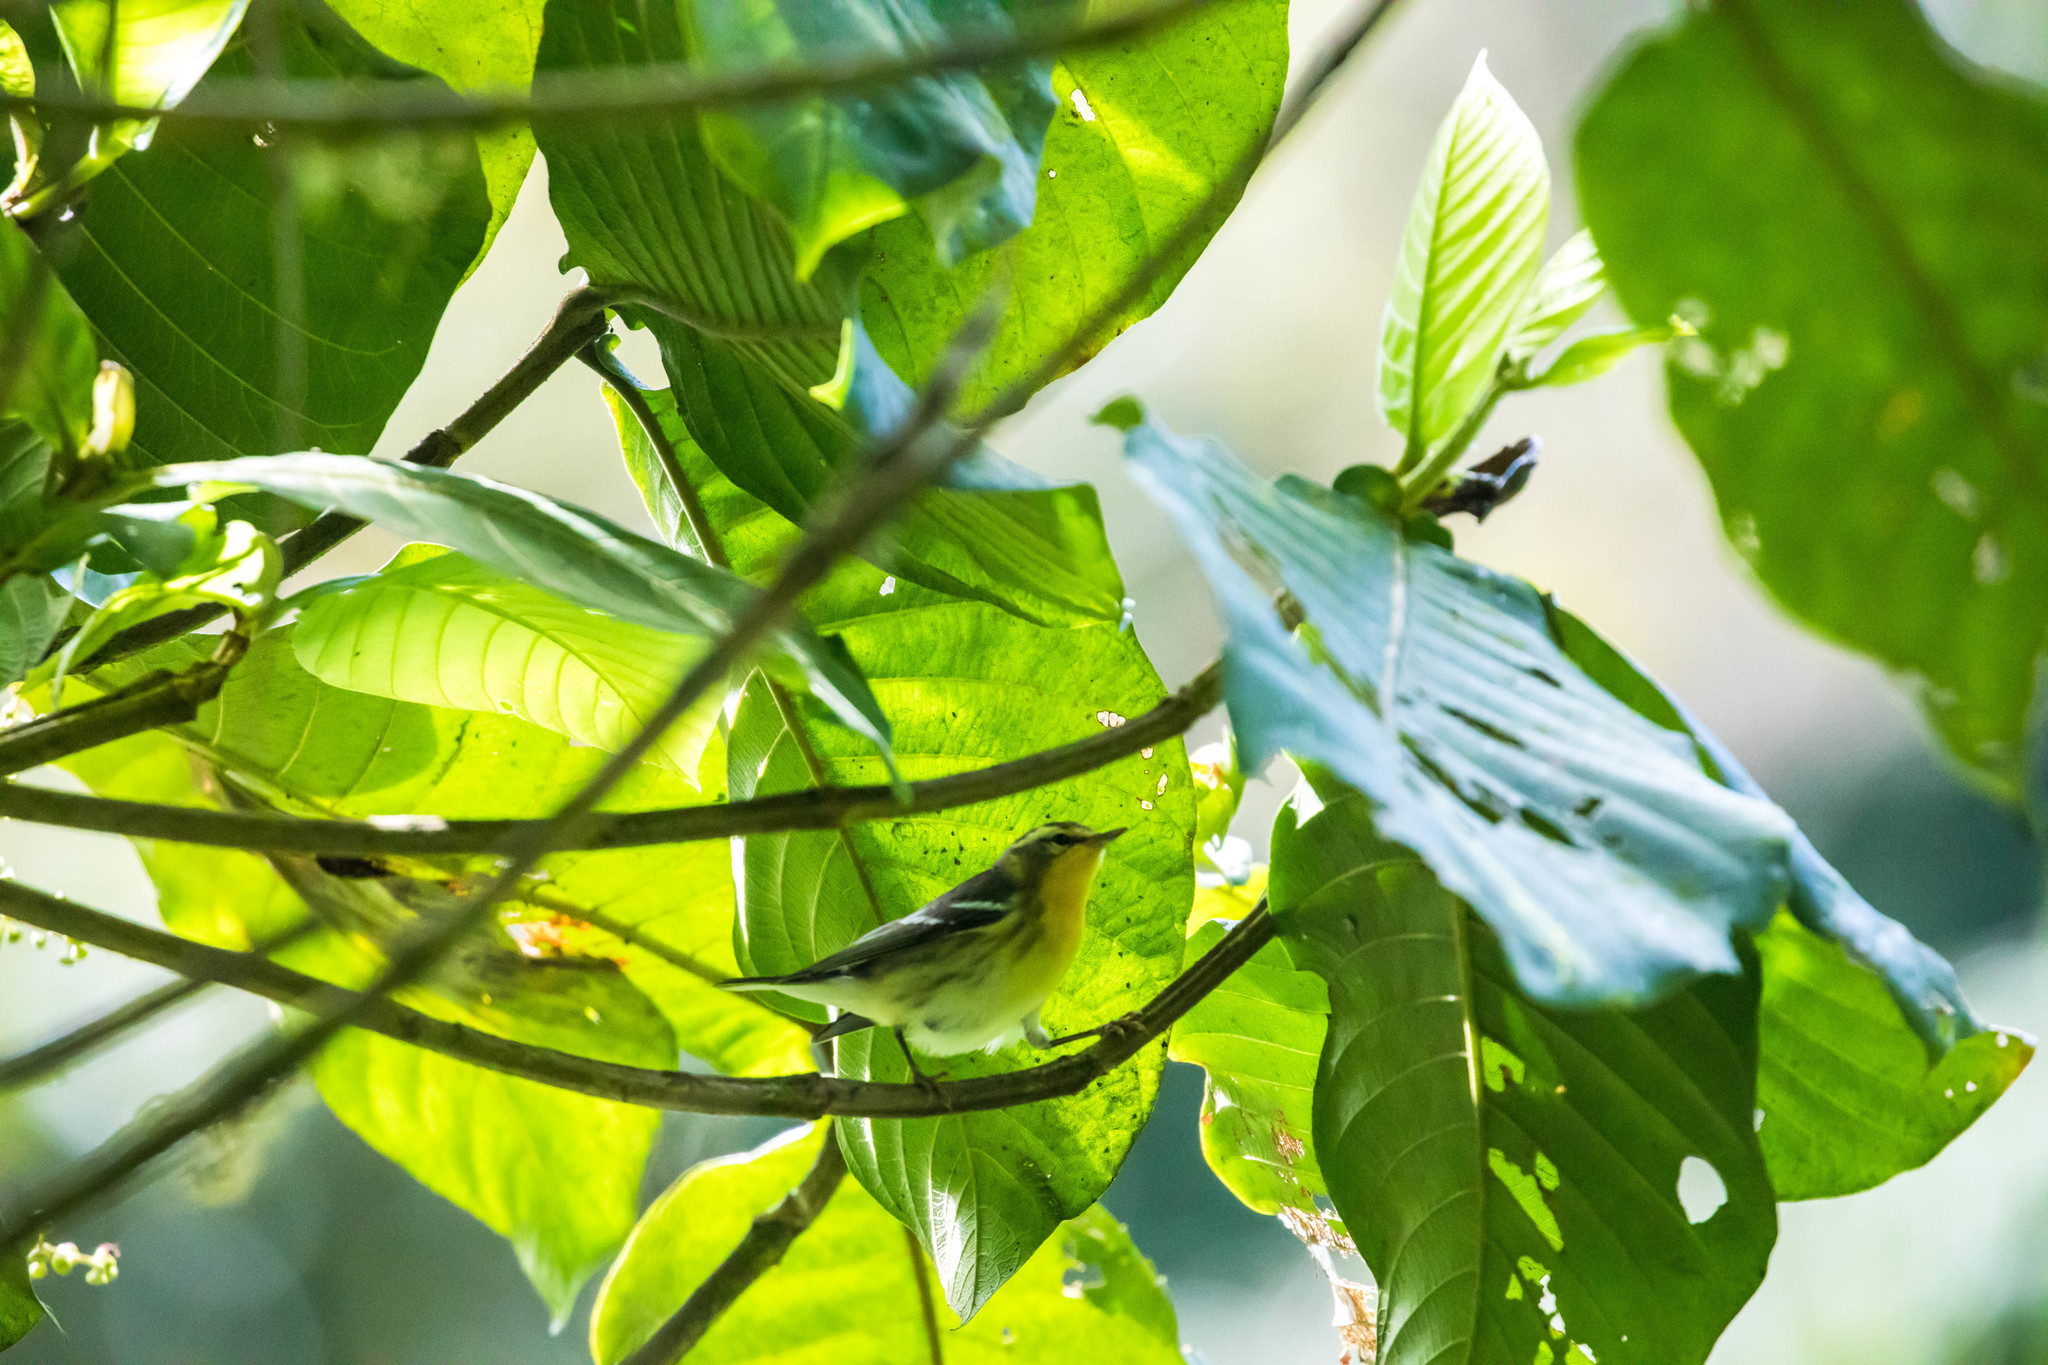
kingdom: Animalia
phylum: Chordata
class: Aves
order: Passeriformes
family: Parulidae
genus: Setophaga
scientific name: Setophaga fusca
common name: Blackburnian warbler
